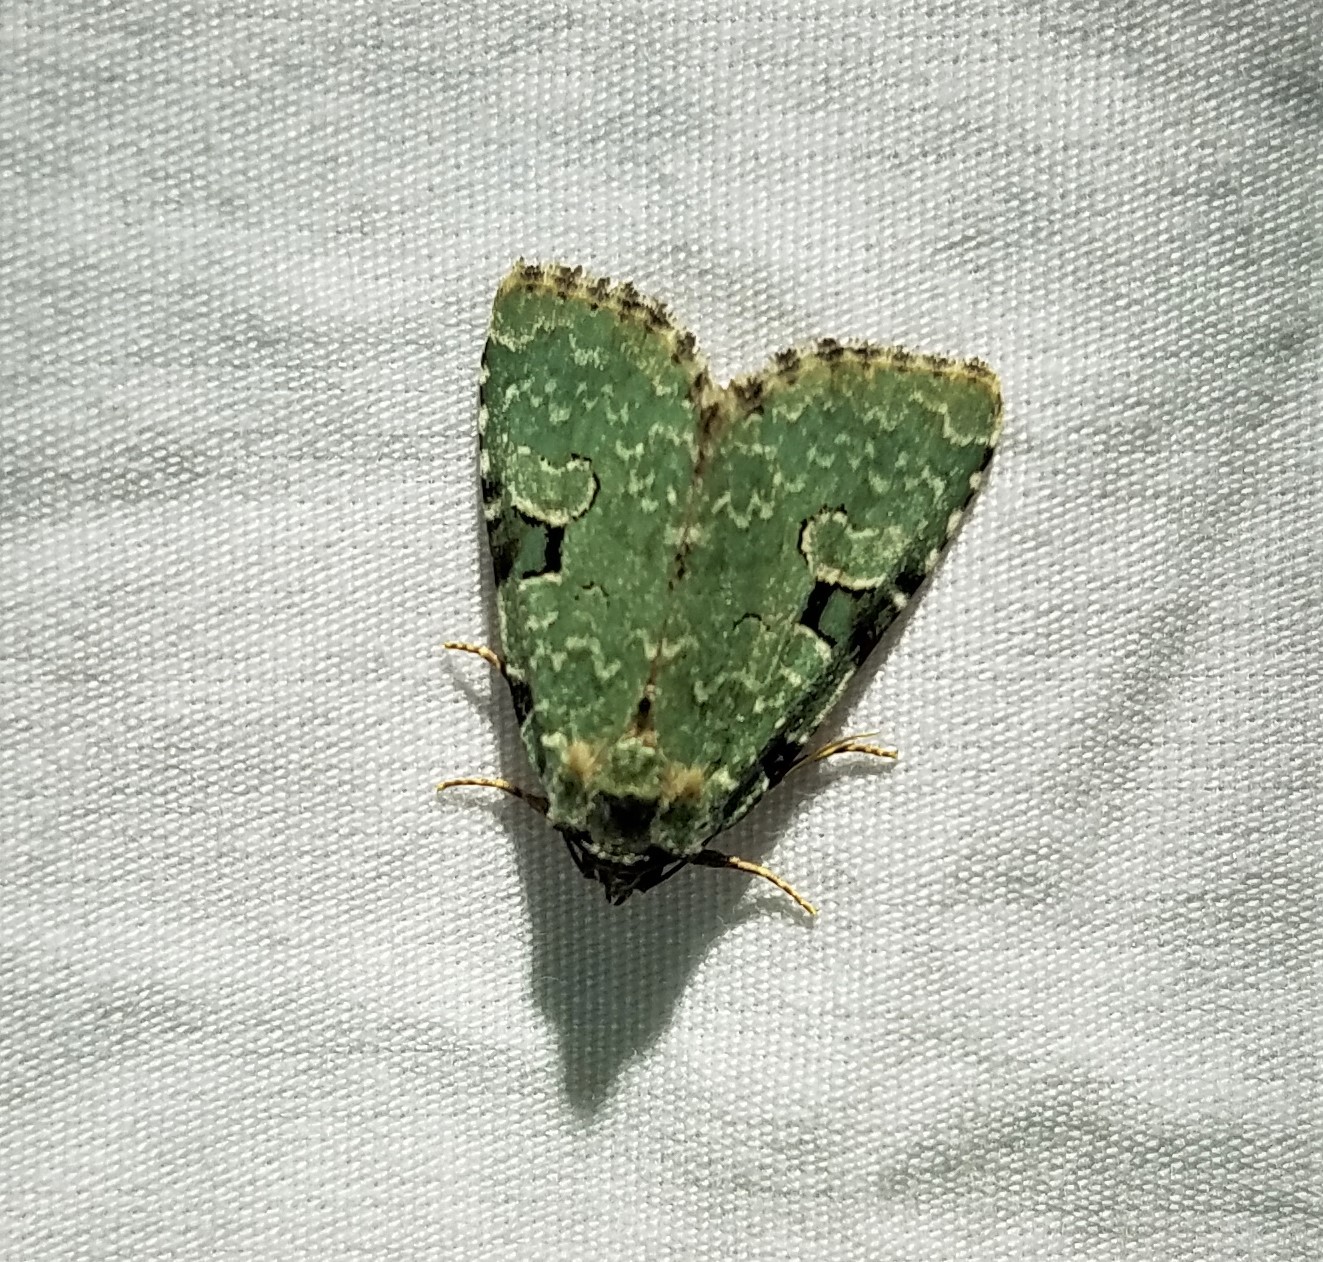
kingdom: Animalia
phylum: Arthropoda
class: Insecta
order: Lepidoptera
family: Noctuidae
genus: Leuconycta
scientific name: Leuconycta diphteroides
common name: Green leuconycta moth
